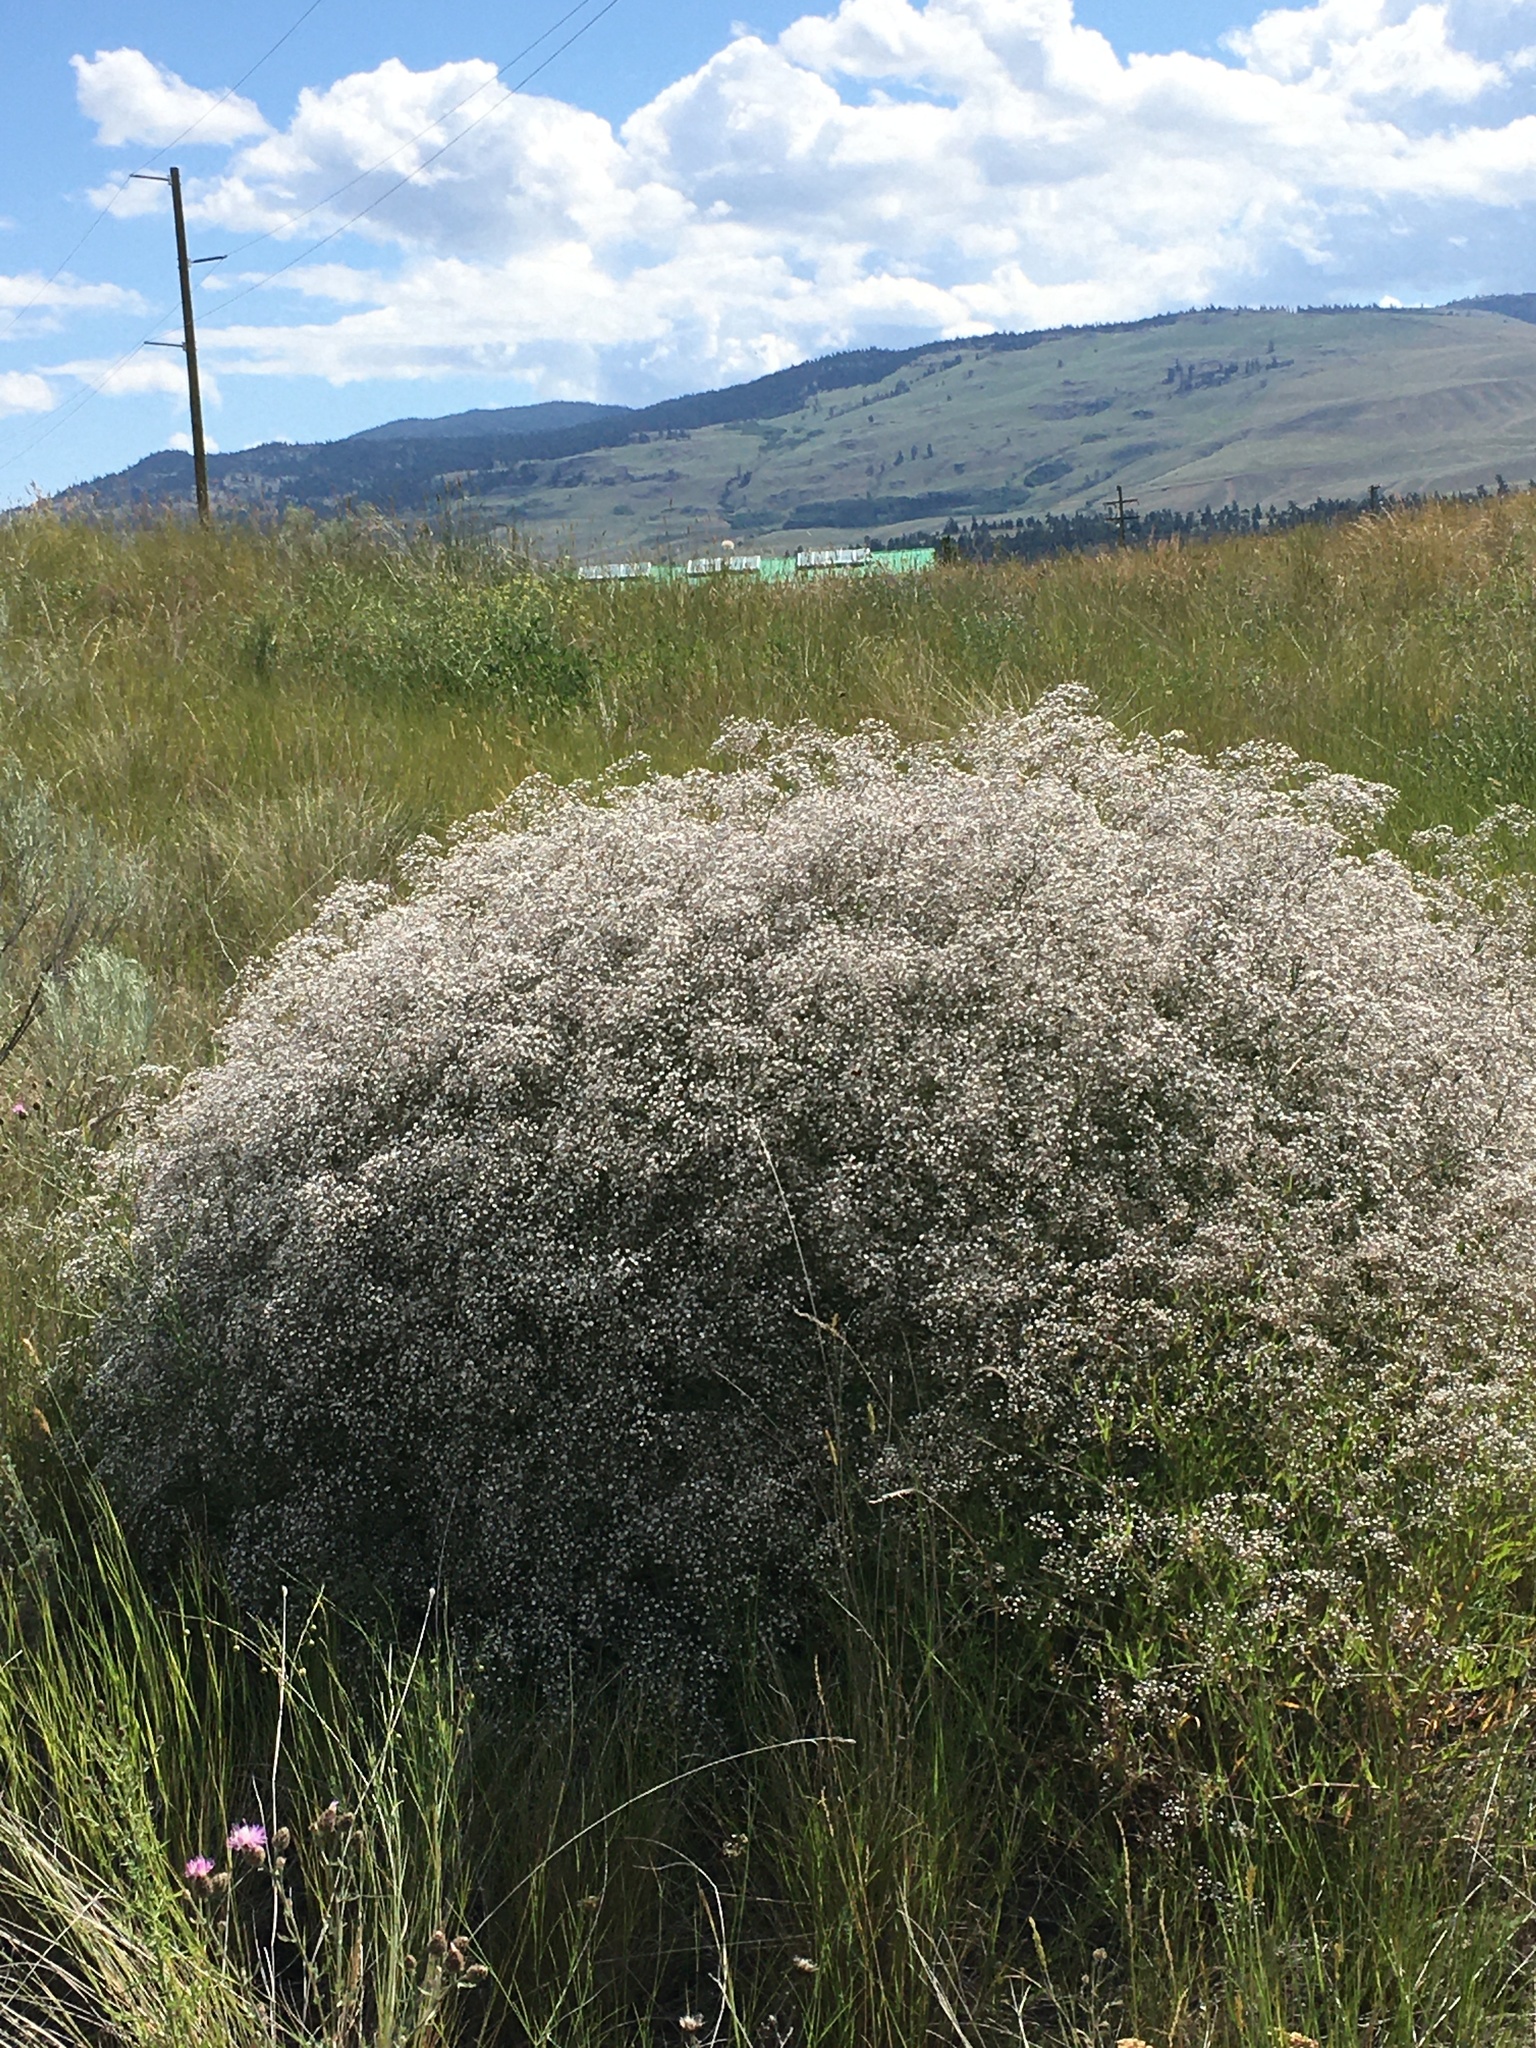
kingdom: Plantae
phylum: Tracheophyta
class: Magnoliopsida
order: Caryophyllales
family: Caryophyllaceae
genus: Gypsophila
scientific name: Gypsophila paniculata
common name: Baby's-breath
